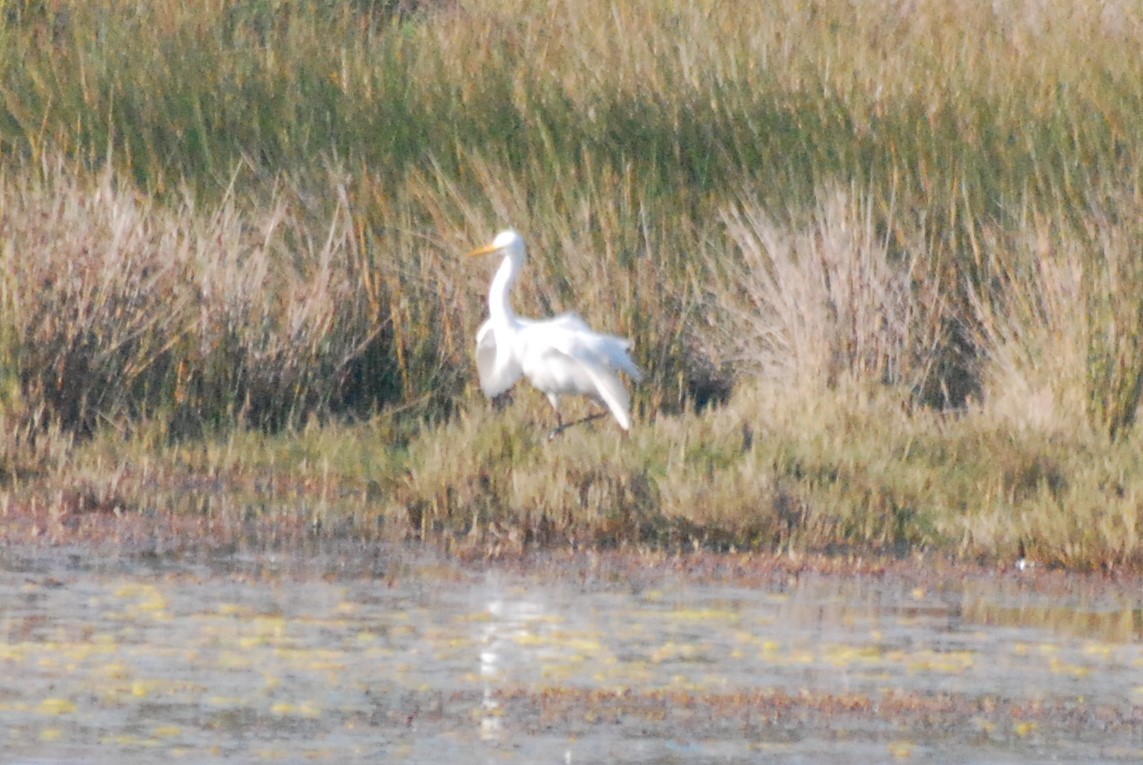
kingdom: Animalia
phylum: Chordata
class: Aves
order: Pelecaniformes
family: Ardeidae
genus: Egretta
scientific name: Egretta intermedia
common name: Intermediate egret
